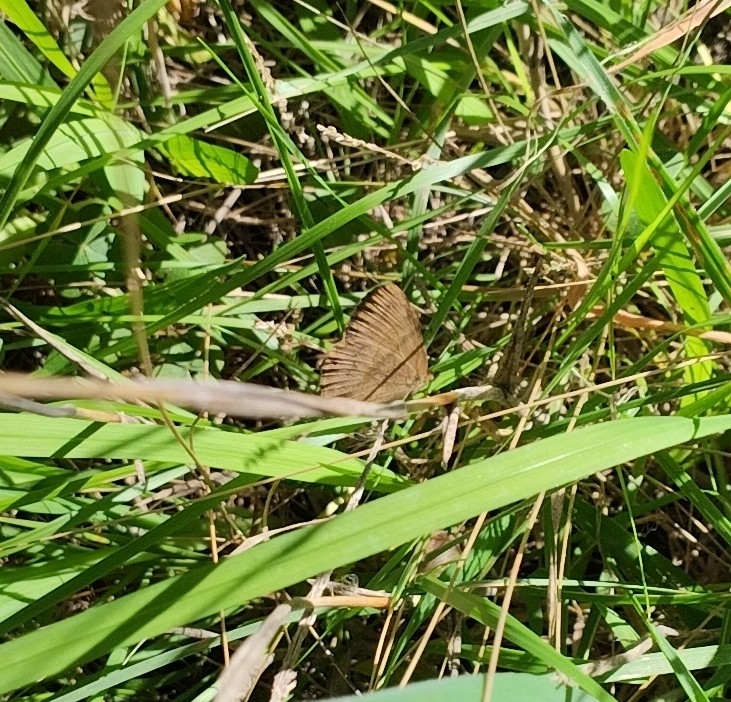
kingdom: Animalia
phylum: Arthropoda
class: Insecta
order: Lepidoptera
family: Nymphalidae
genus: Euptychia
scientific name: Euptychia
